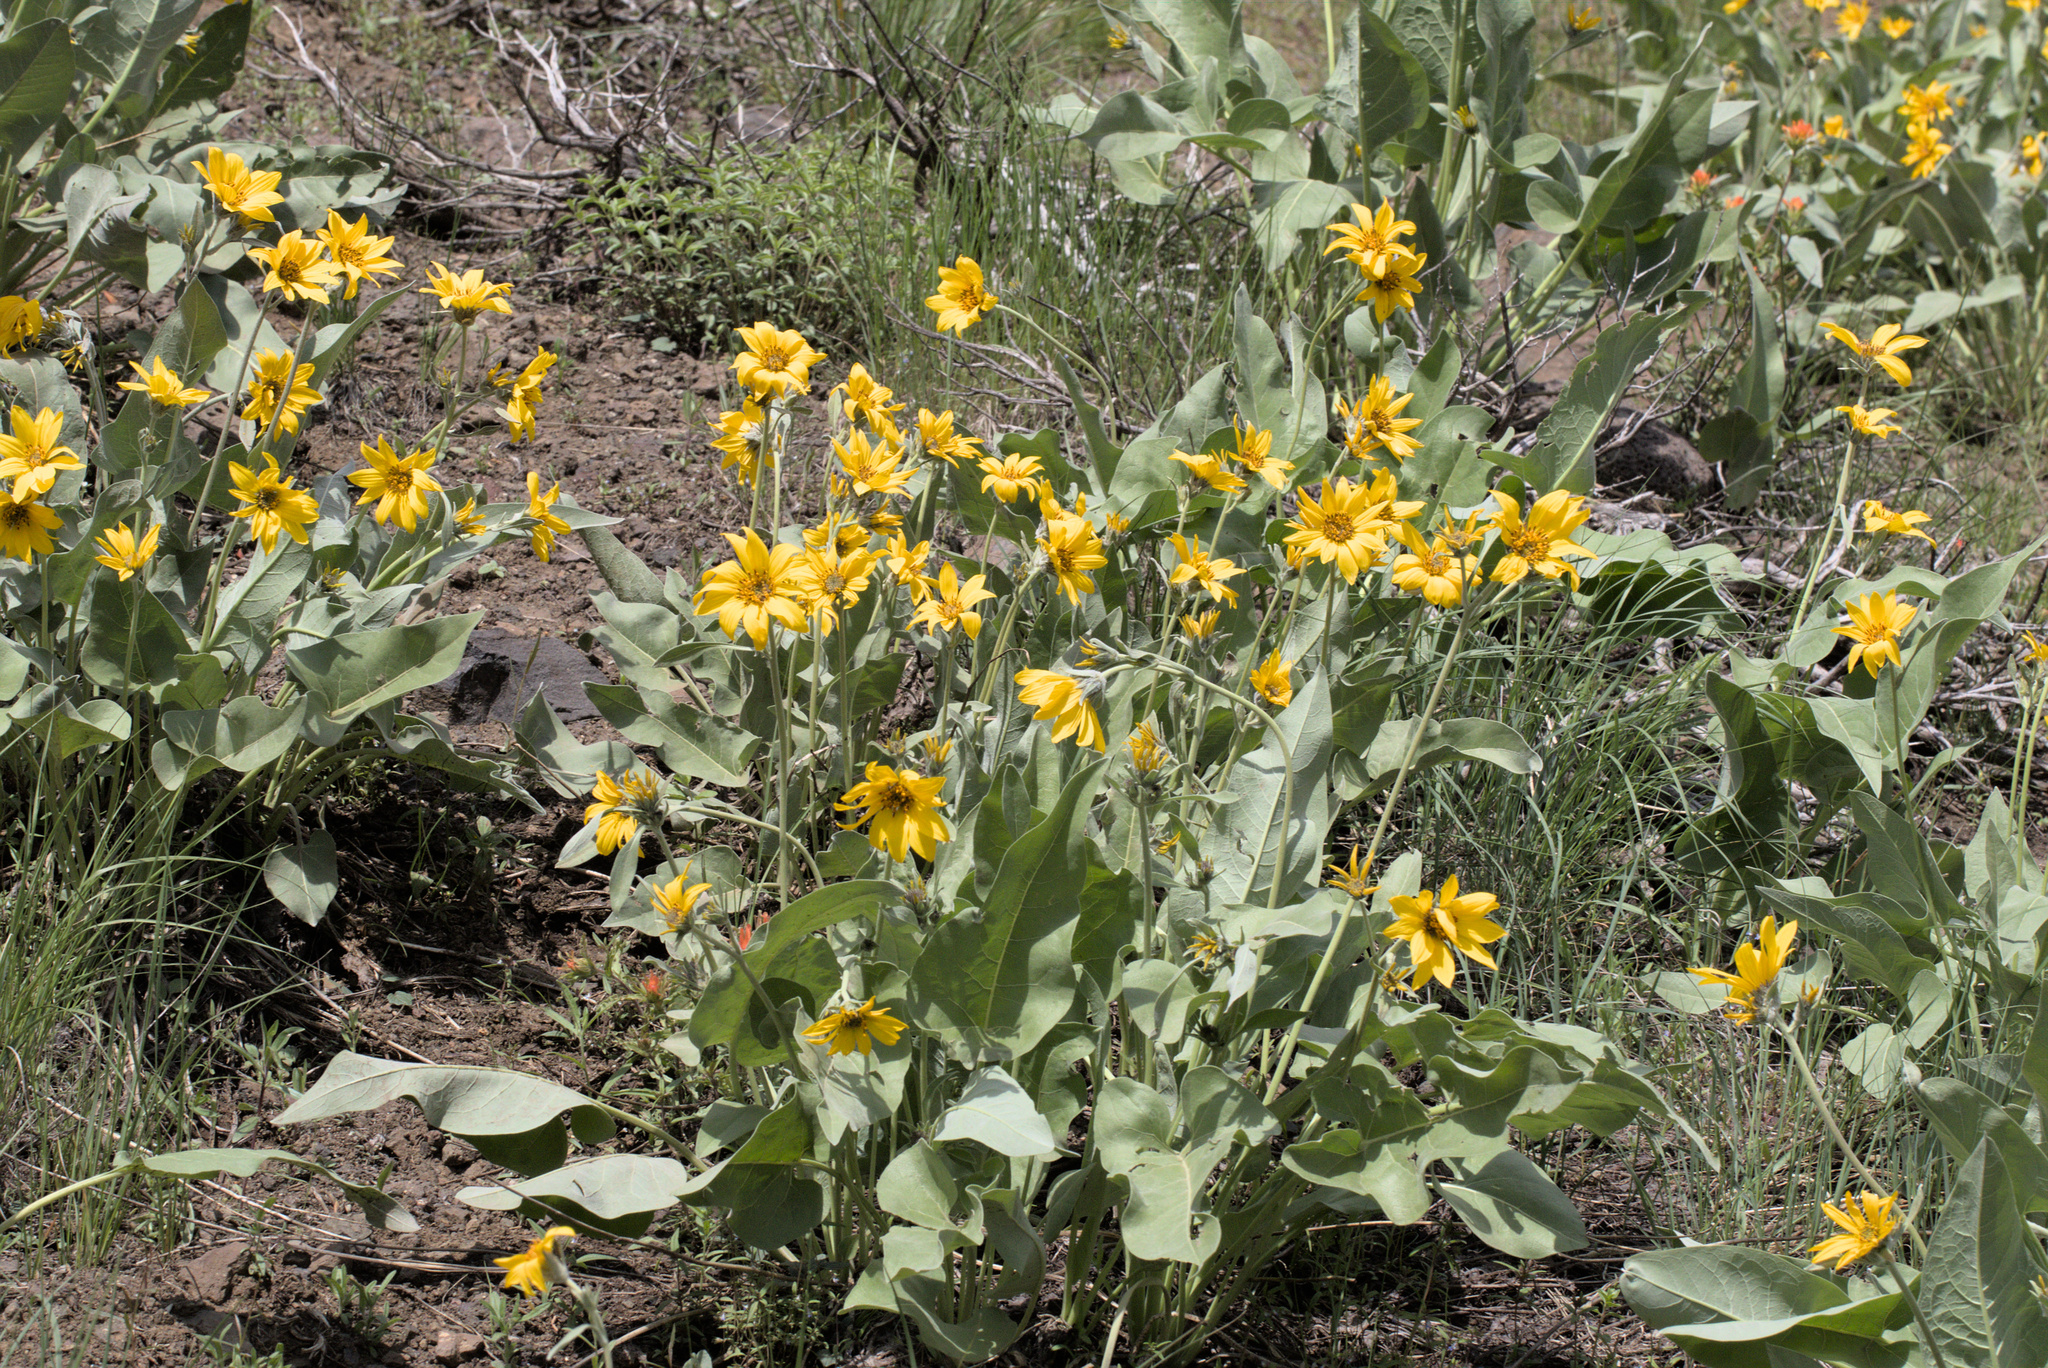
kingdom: Plantae
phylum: Tracheophyta
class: Magnoliopsida
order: Asterales
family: Asteraceae
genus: Wyethia
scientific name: Wyethia sagittata
